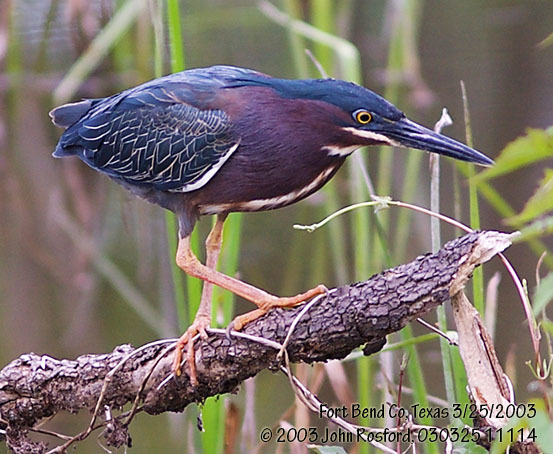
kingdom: Animalia
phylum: Chordata
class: Aves
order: Pelecaniformes
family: Ardeidae
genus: Butorides
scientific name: Butorides virescens
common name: Green heron
